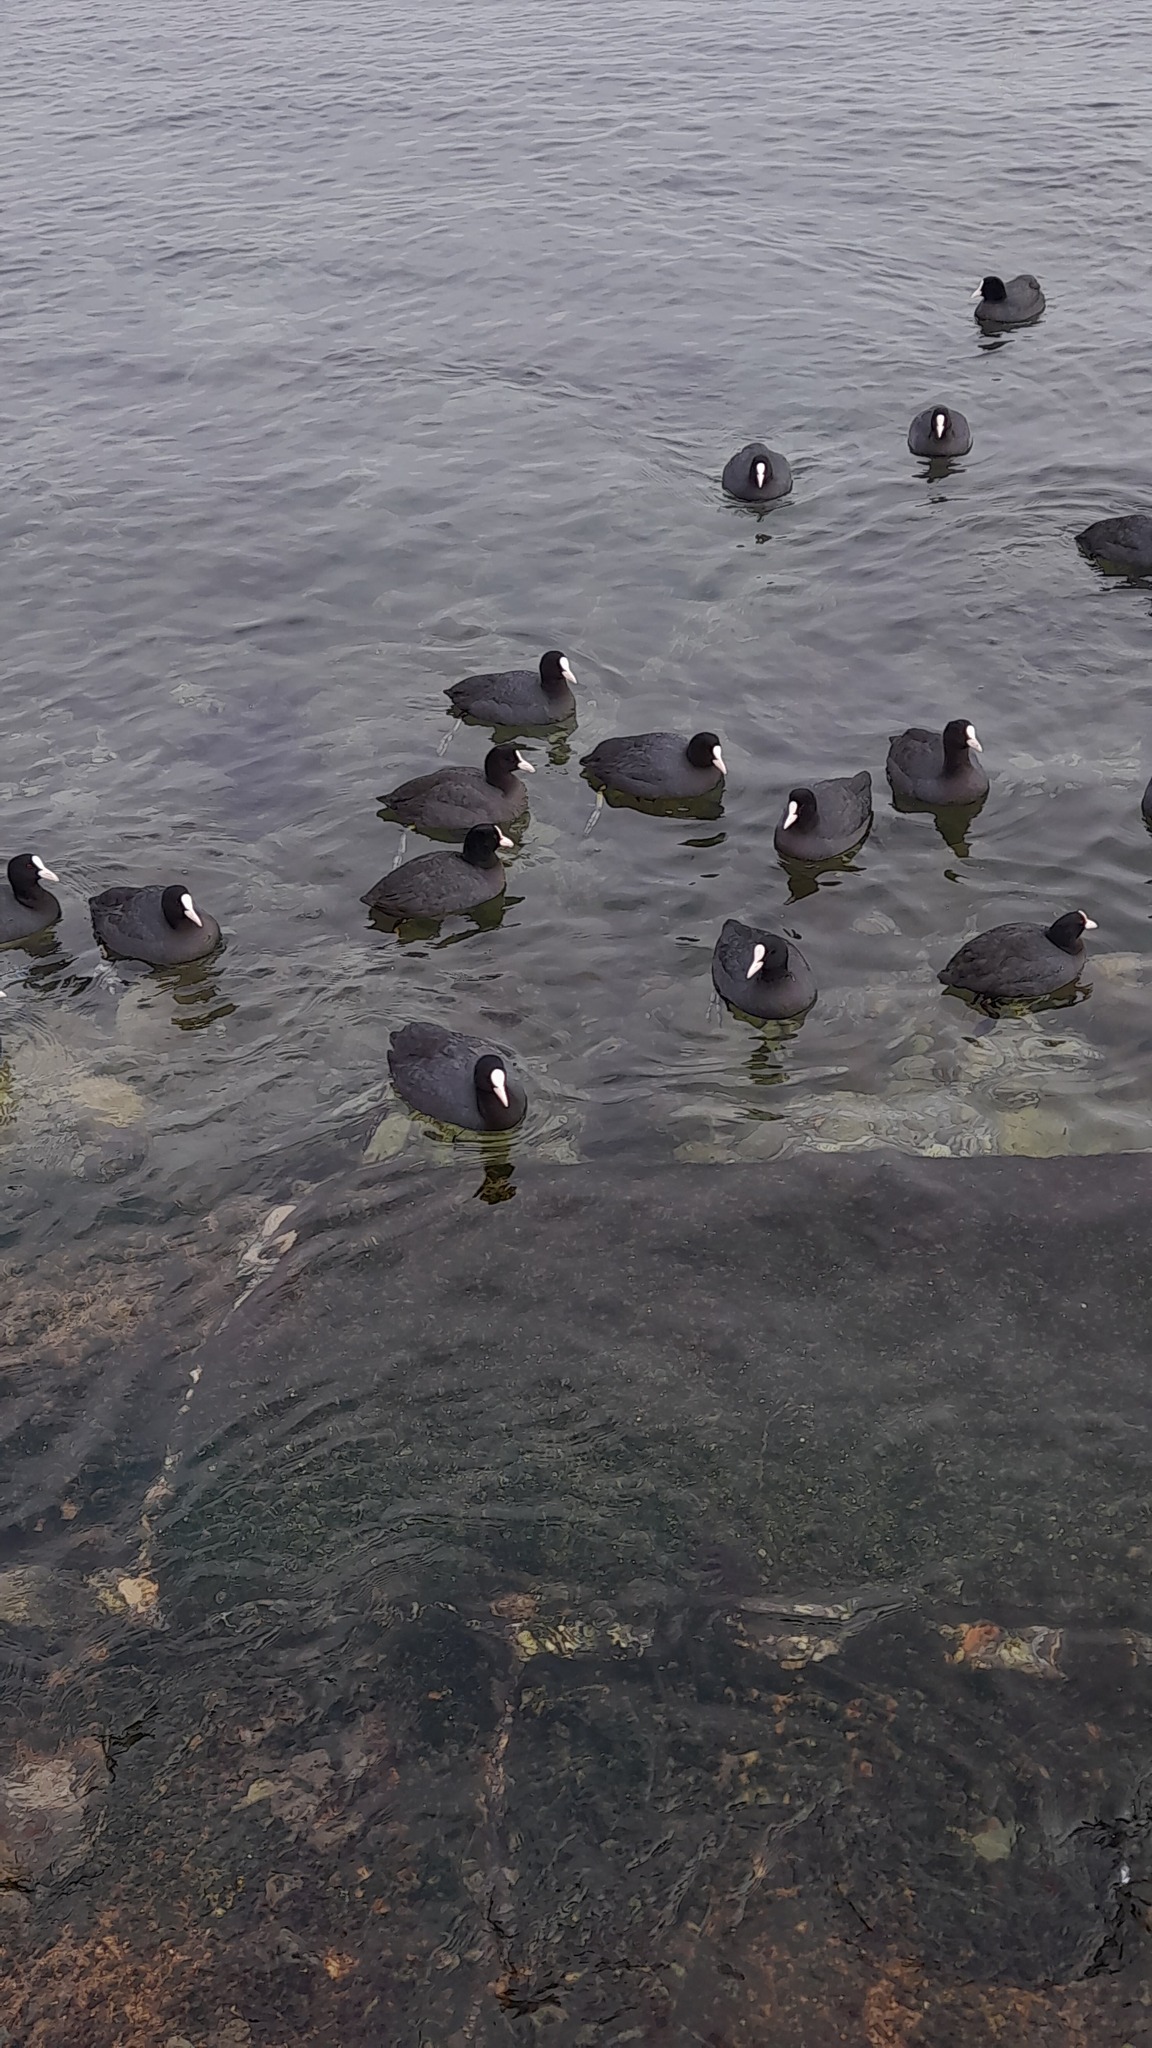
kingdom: Animalia
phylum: Chordata
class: Aves
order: Gruiformes
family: Rallidae
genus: Fulica
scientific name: Fulica atra
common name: Eurasian coot
